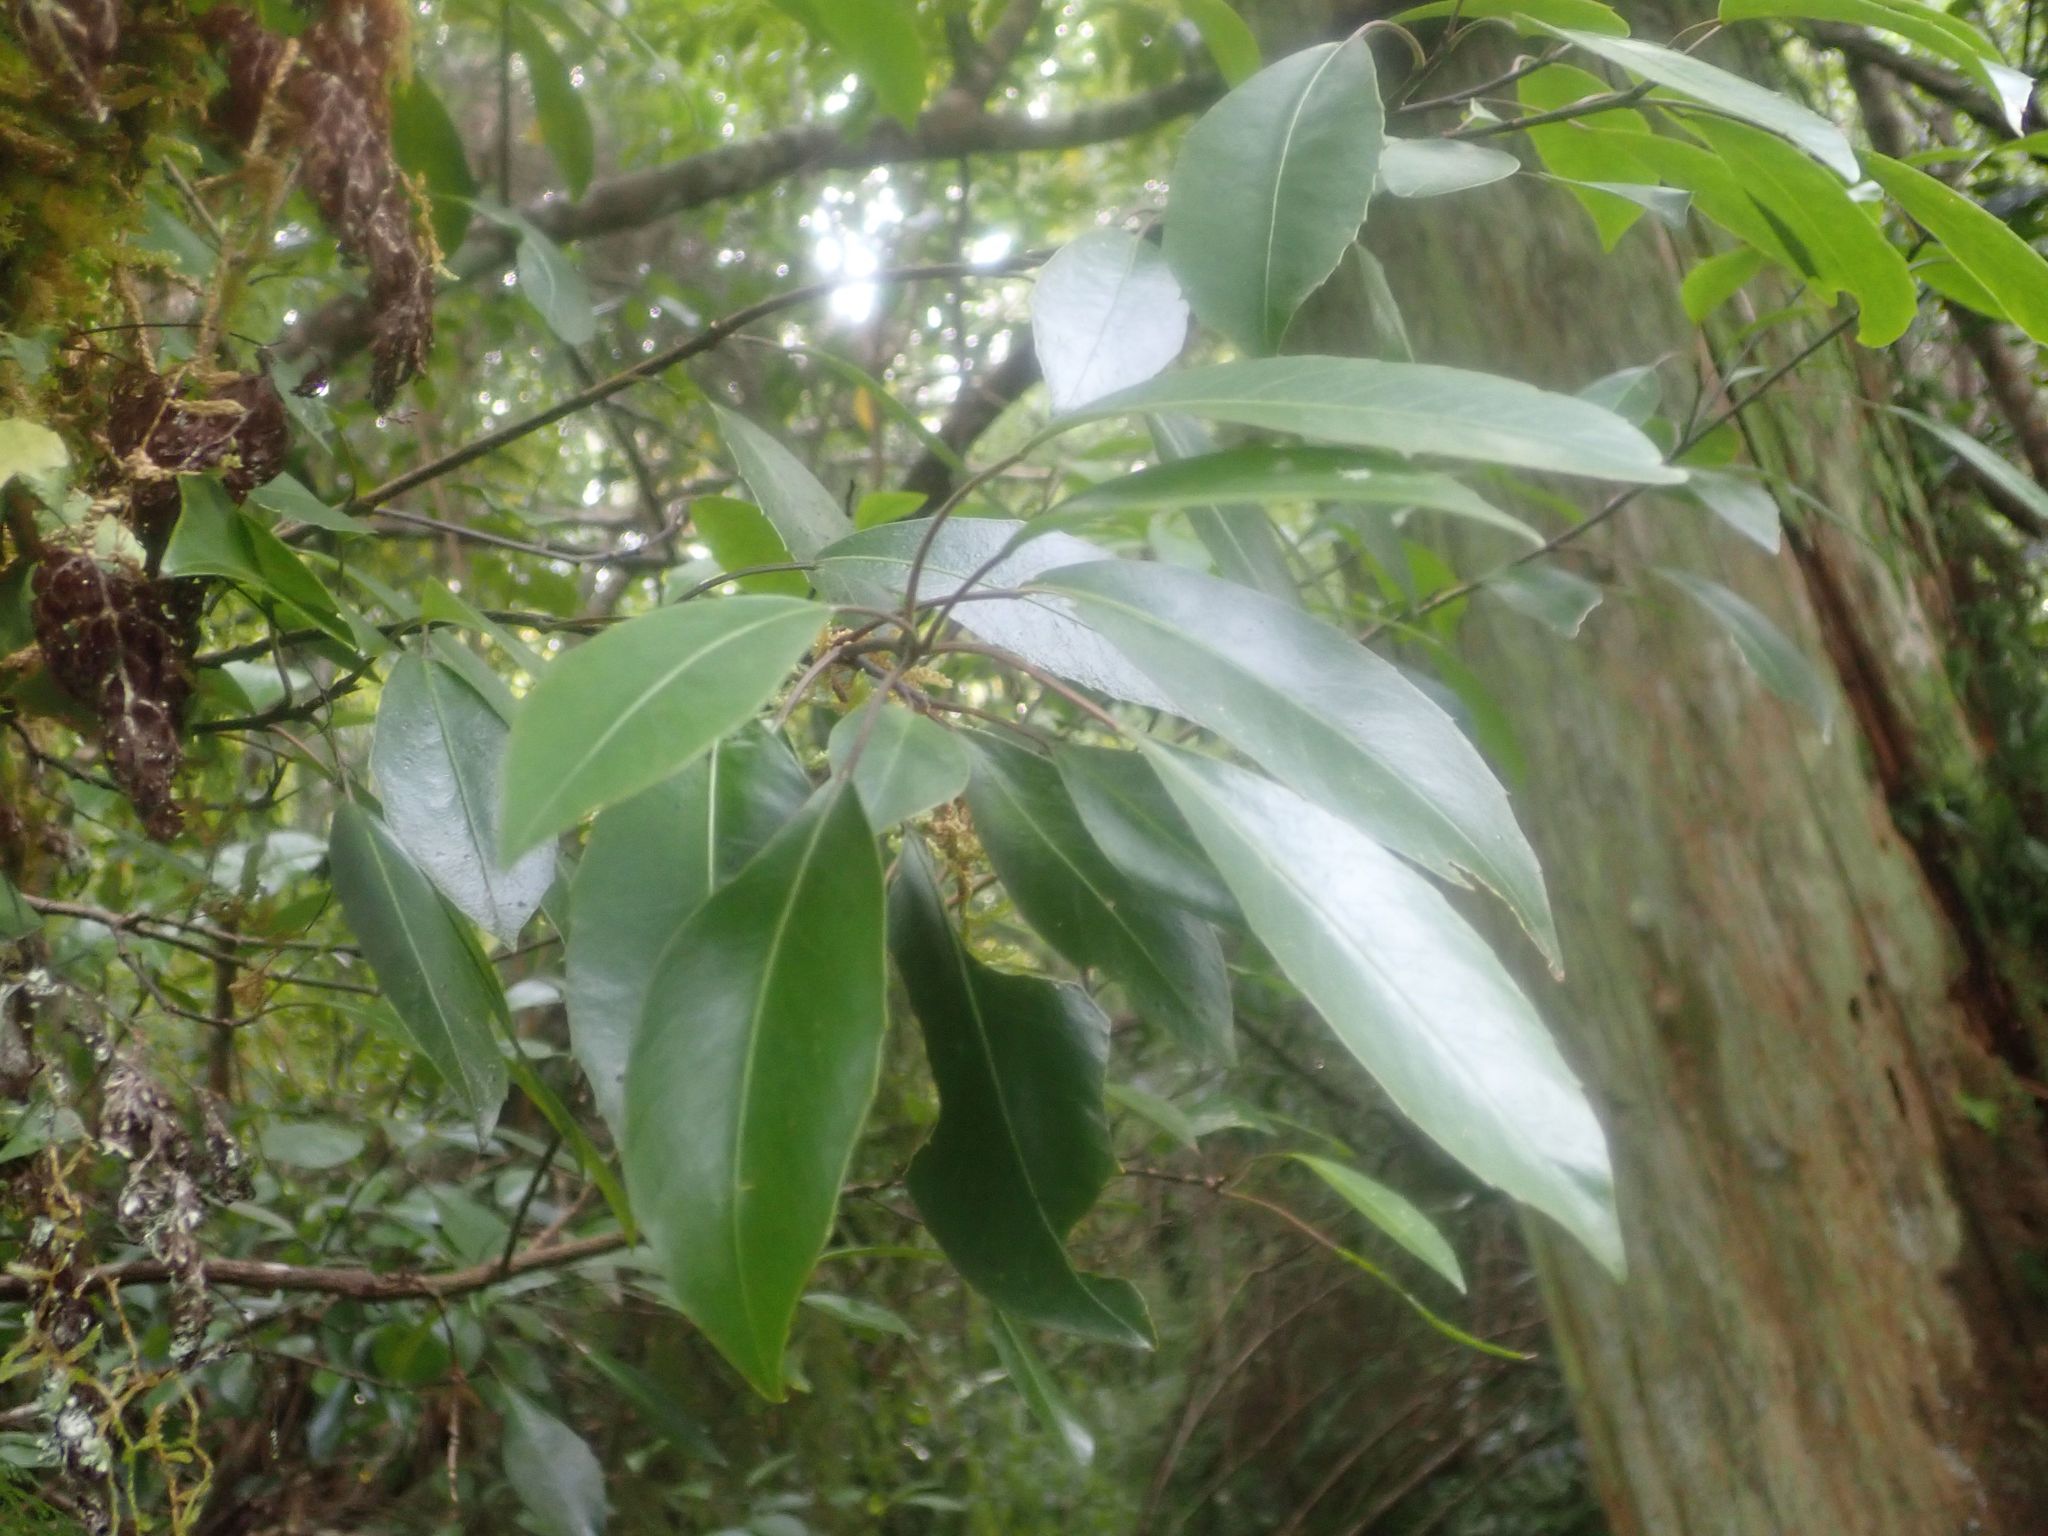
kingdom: Plantae
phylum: Tracheophyta
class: Magnoliopsida
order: Apiales
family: Araliaceae
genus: Raukaua
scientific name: Raukaua edgerleyi
